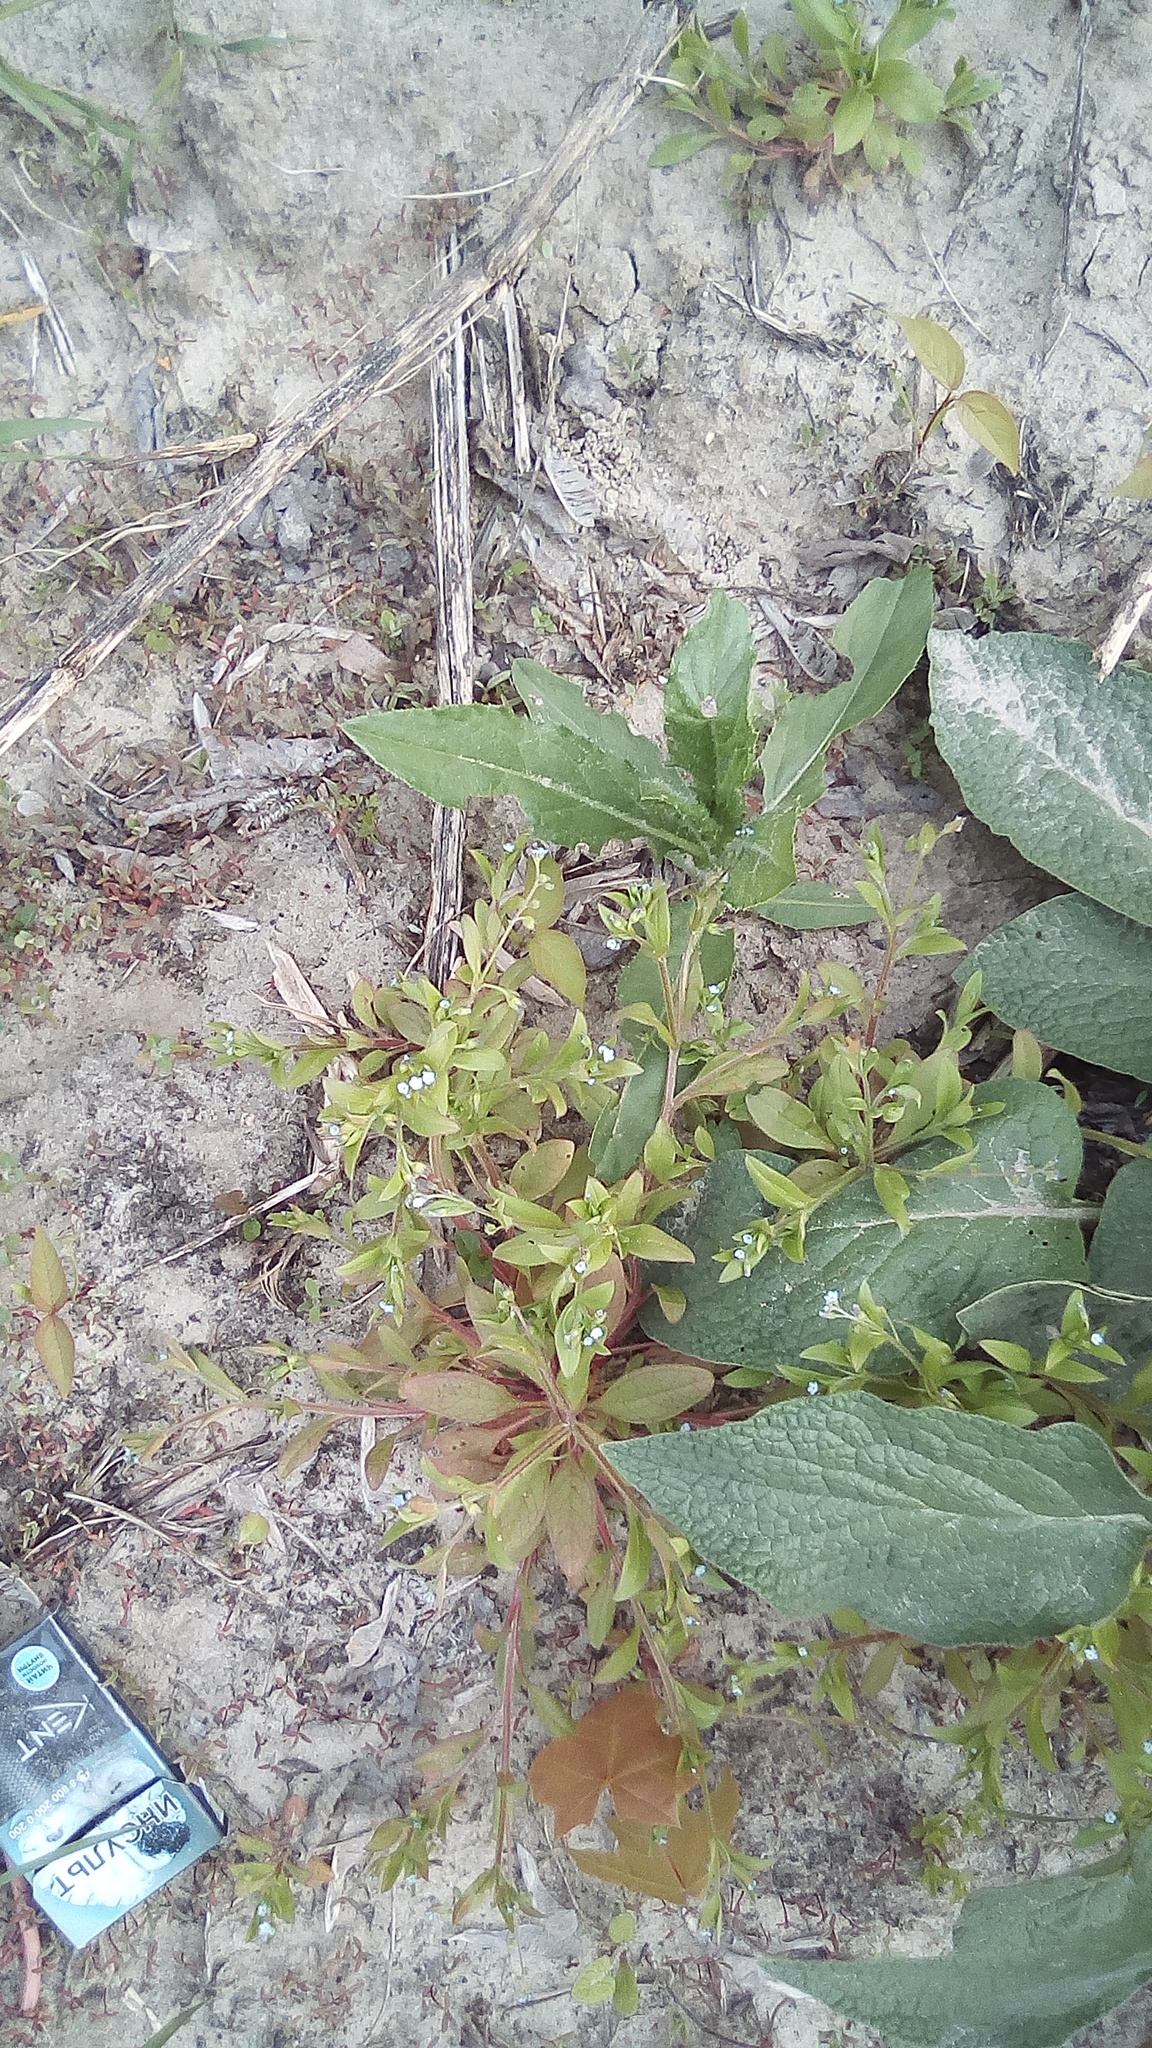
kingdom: Plantae
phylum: Tracheophyta
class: Magnoliopsida
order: Boraginales
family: Boraginaceae
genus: Myosotis
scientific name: Myosotis sparsiflora
